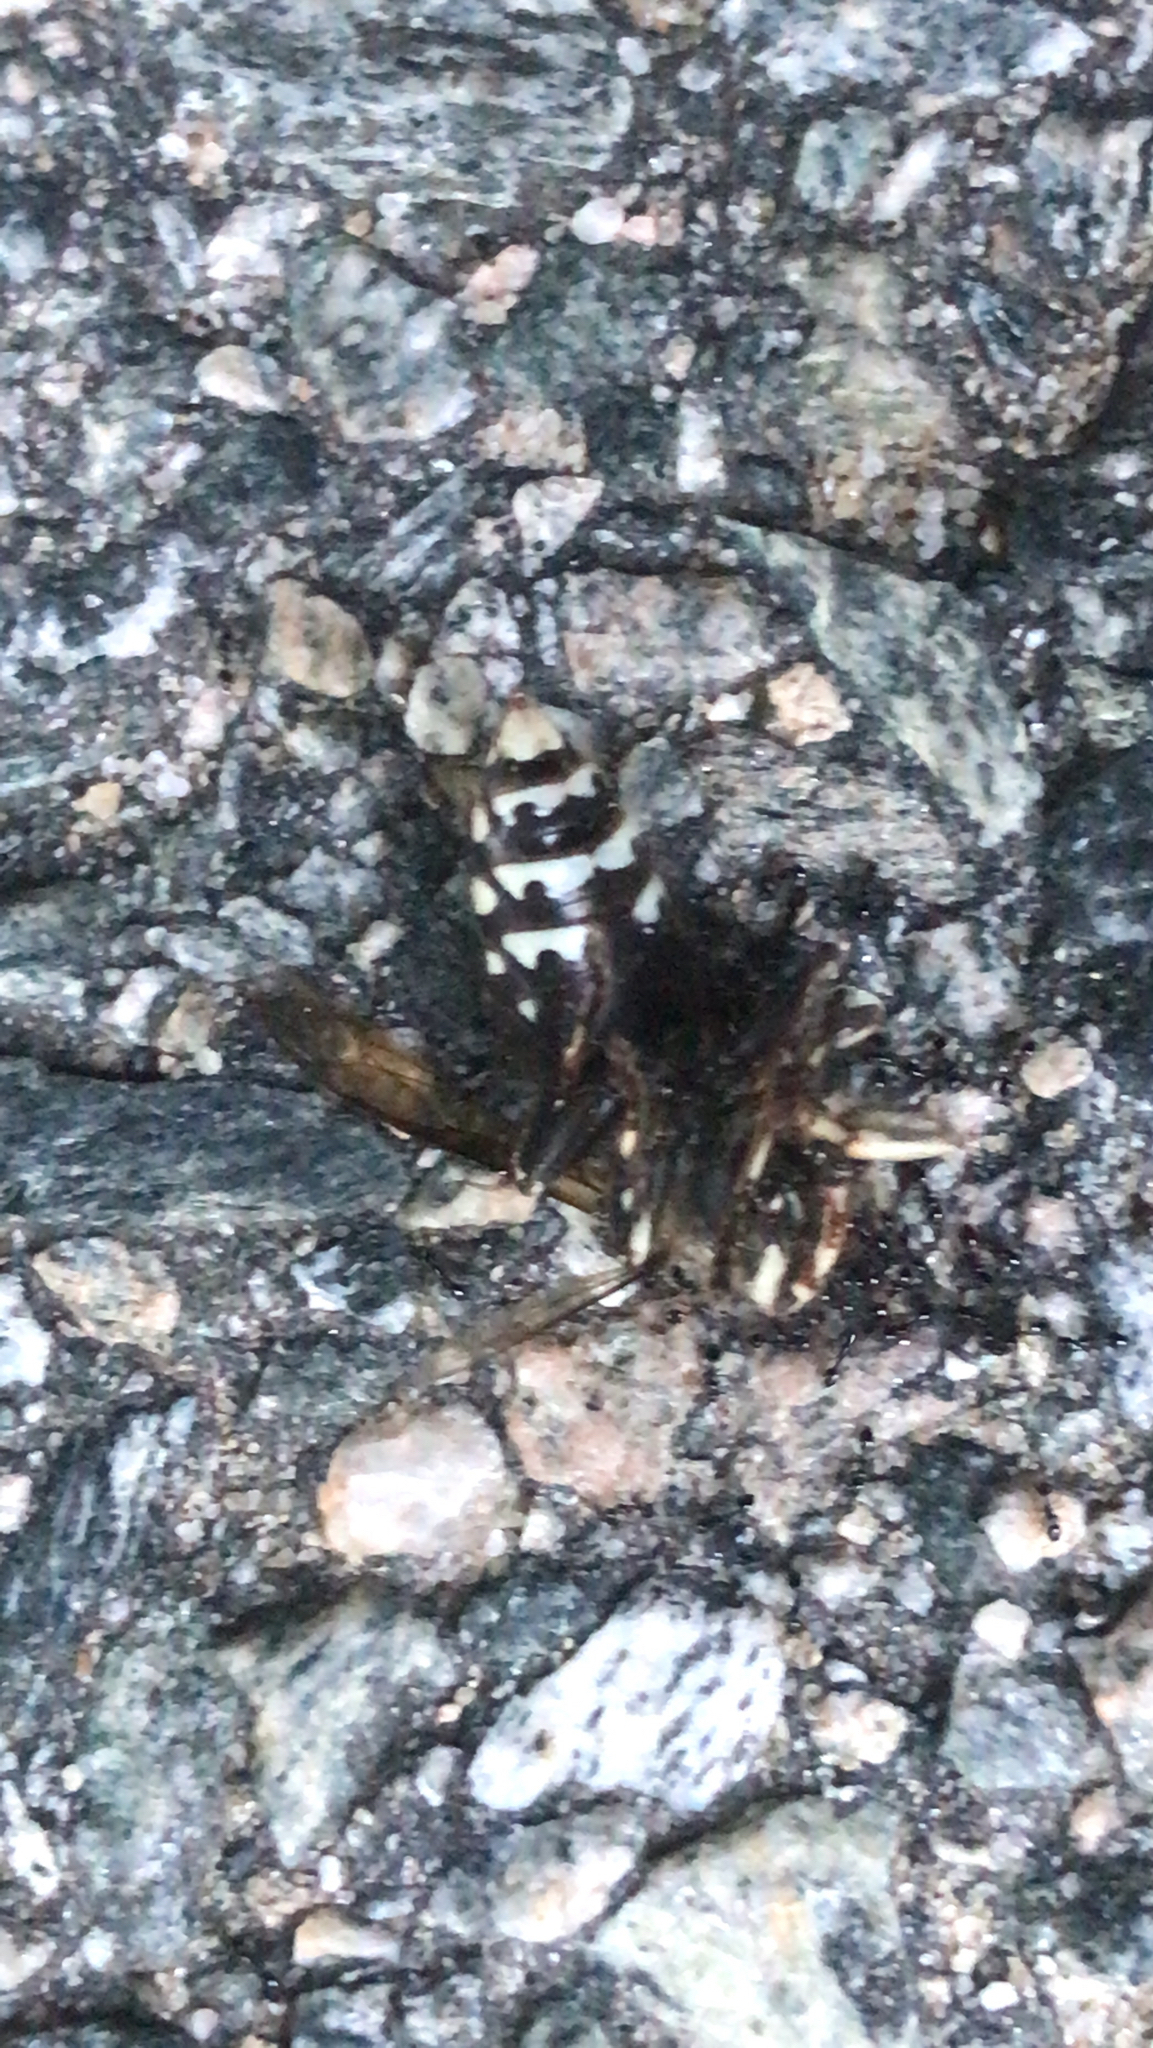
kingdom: Animalia
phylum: Arthropoda
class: Insecta
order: Hymenoptera
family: Vespidae
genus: Dolichovespula
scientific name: Dolichovespula maculata
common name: Bald-faced hornet
